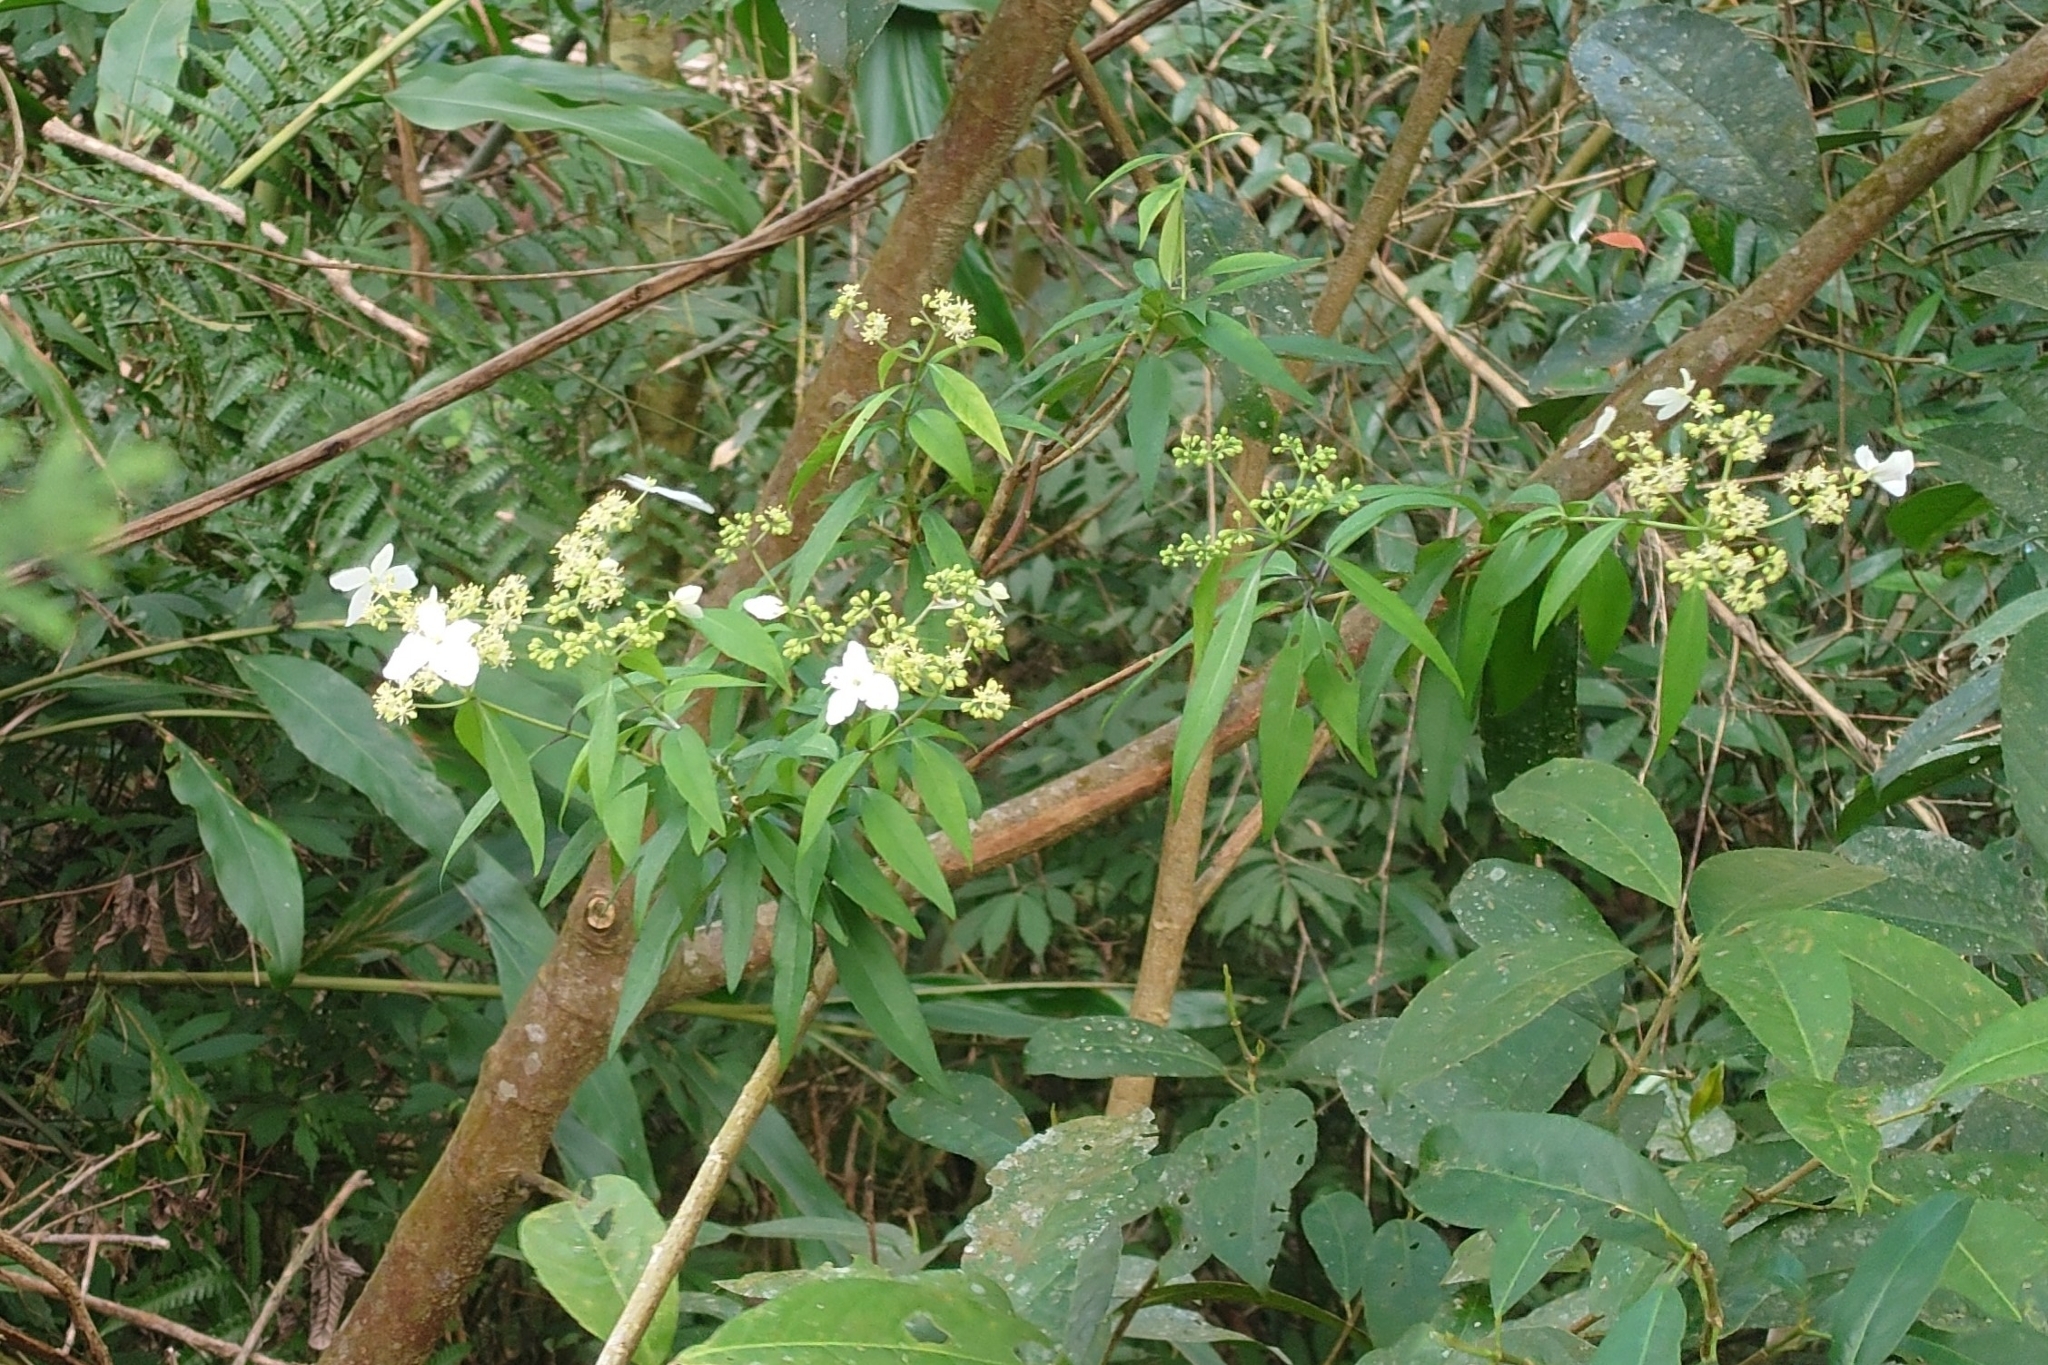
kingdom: Plantae
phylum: Tracheophyta
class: Magnoliopsida
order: Cornales
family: Hydrangeaceae
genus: Hydrangea
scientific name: Hydrangea chinensis
